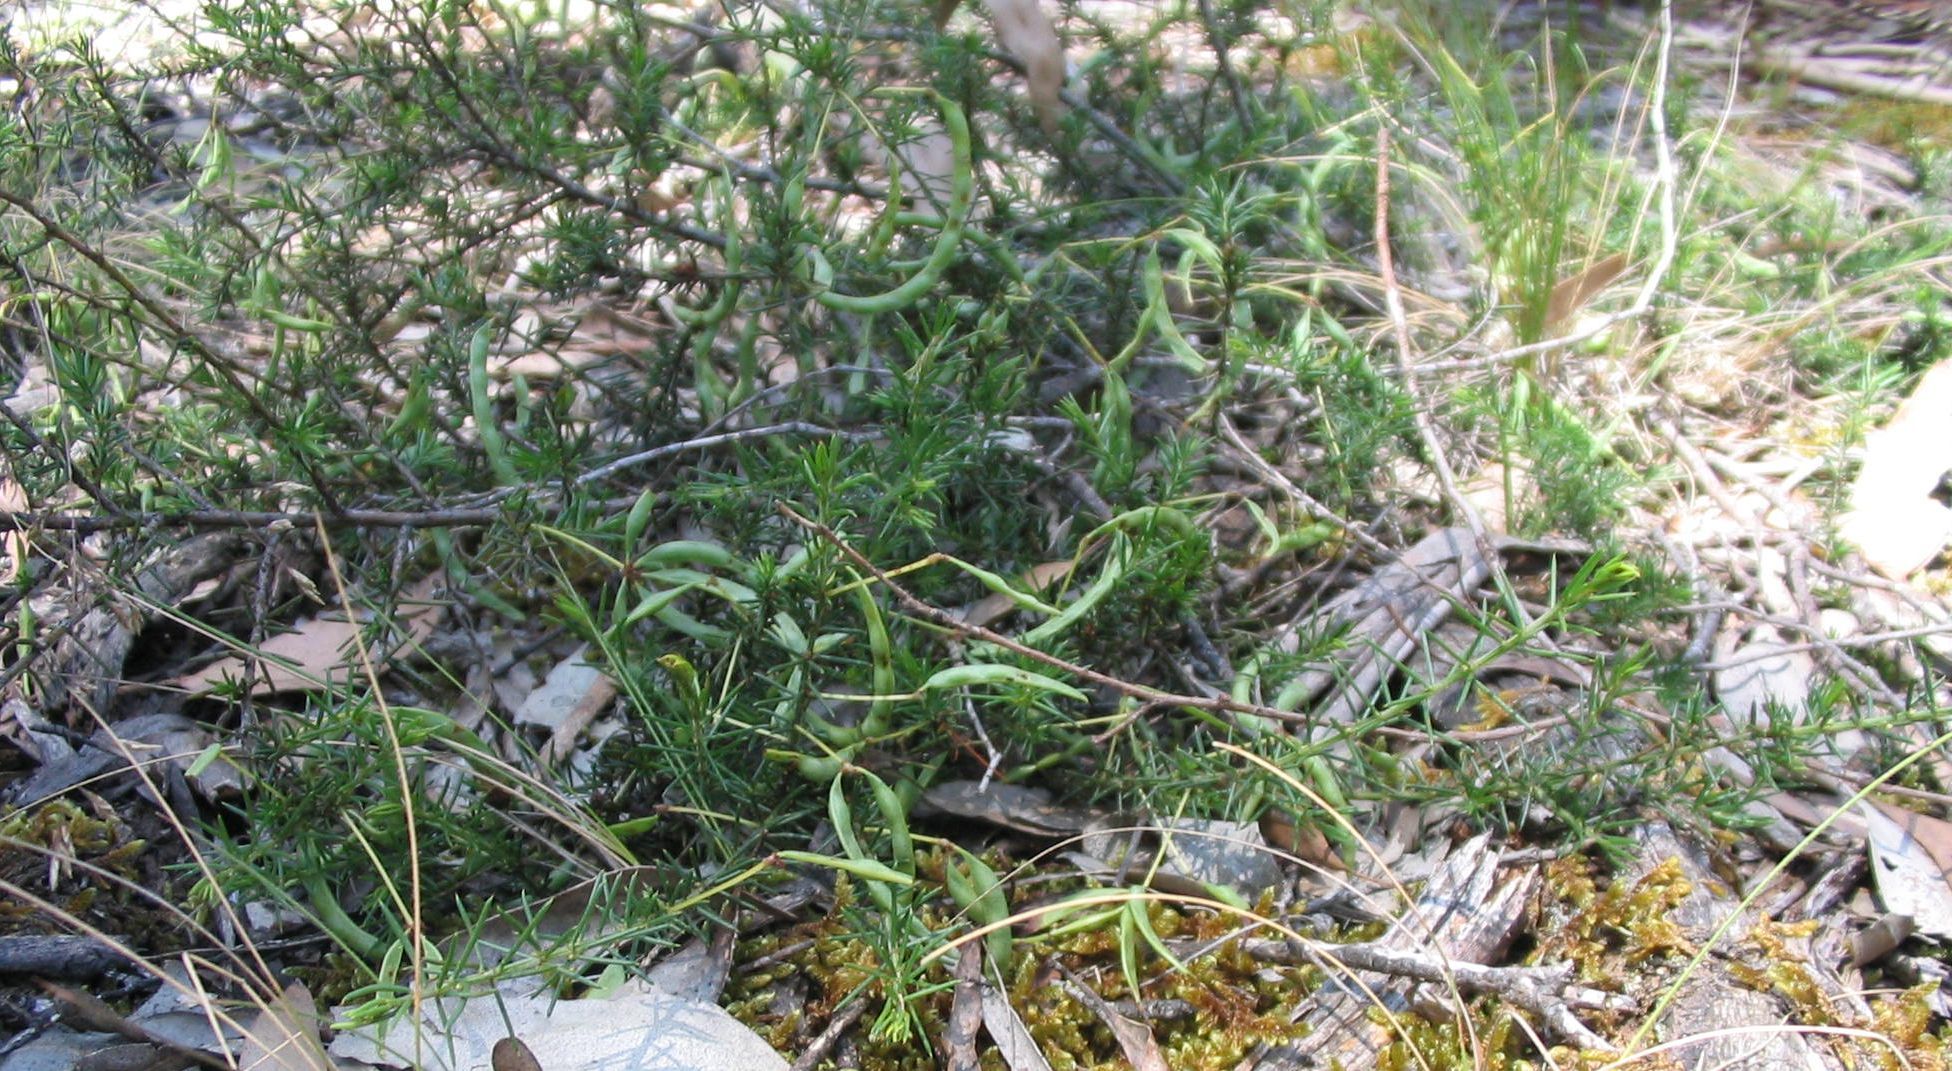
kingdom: Plantae
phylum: Tracheophyta
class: Magnoliopsida
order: Fabales
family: Fabaceae
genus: Acacia
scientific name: Acacia aculeatissima
